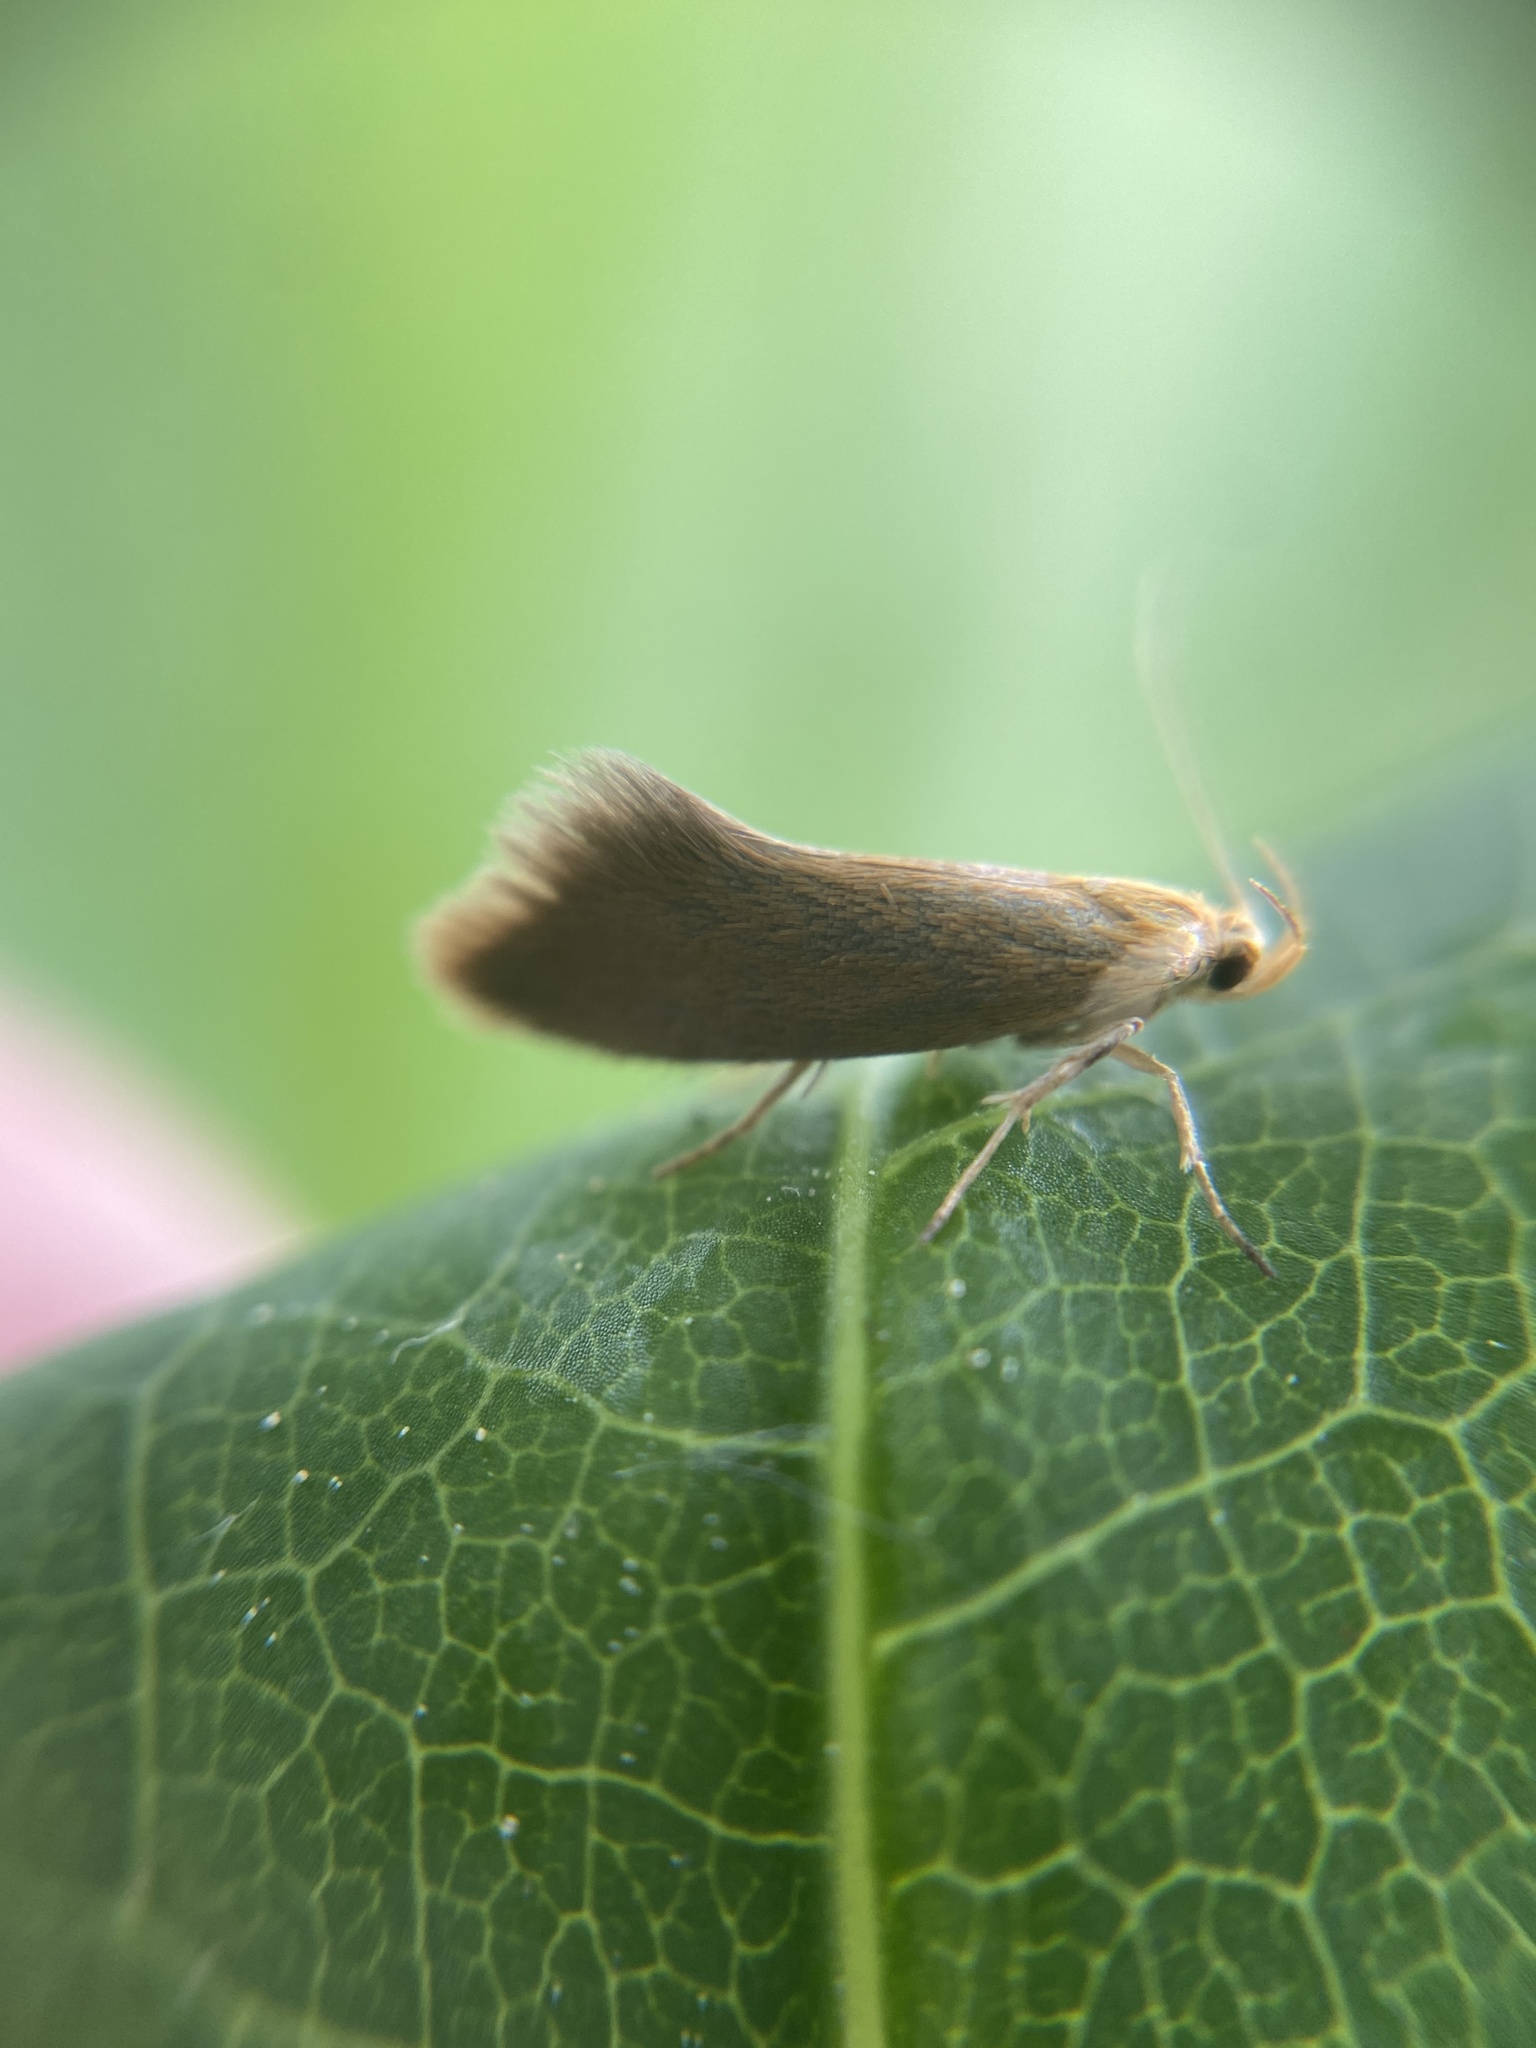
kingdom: Animalia
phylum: Arthropoda
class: Insecta
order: Lepidoptera
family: Oecophoridae
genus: Borkhausenia
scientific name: Borkhausenia Crassa unitella
